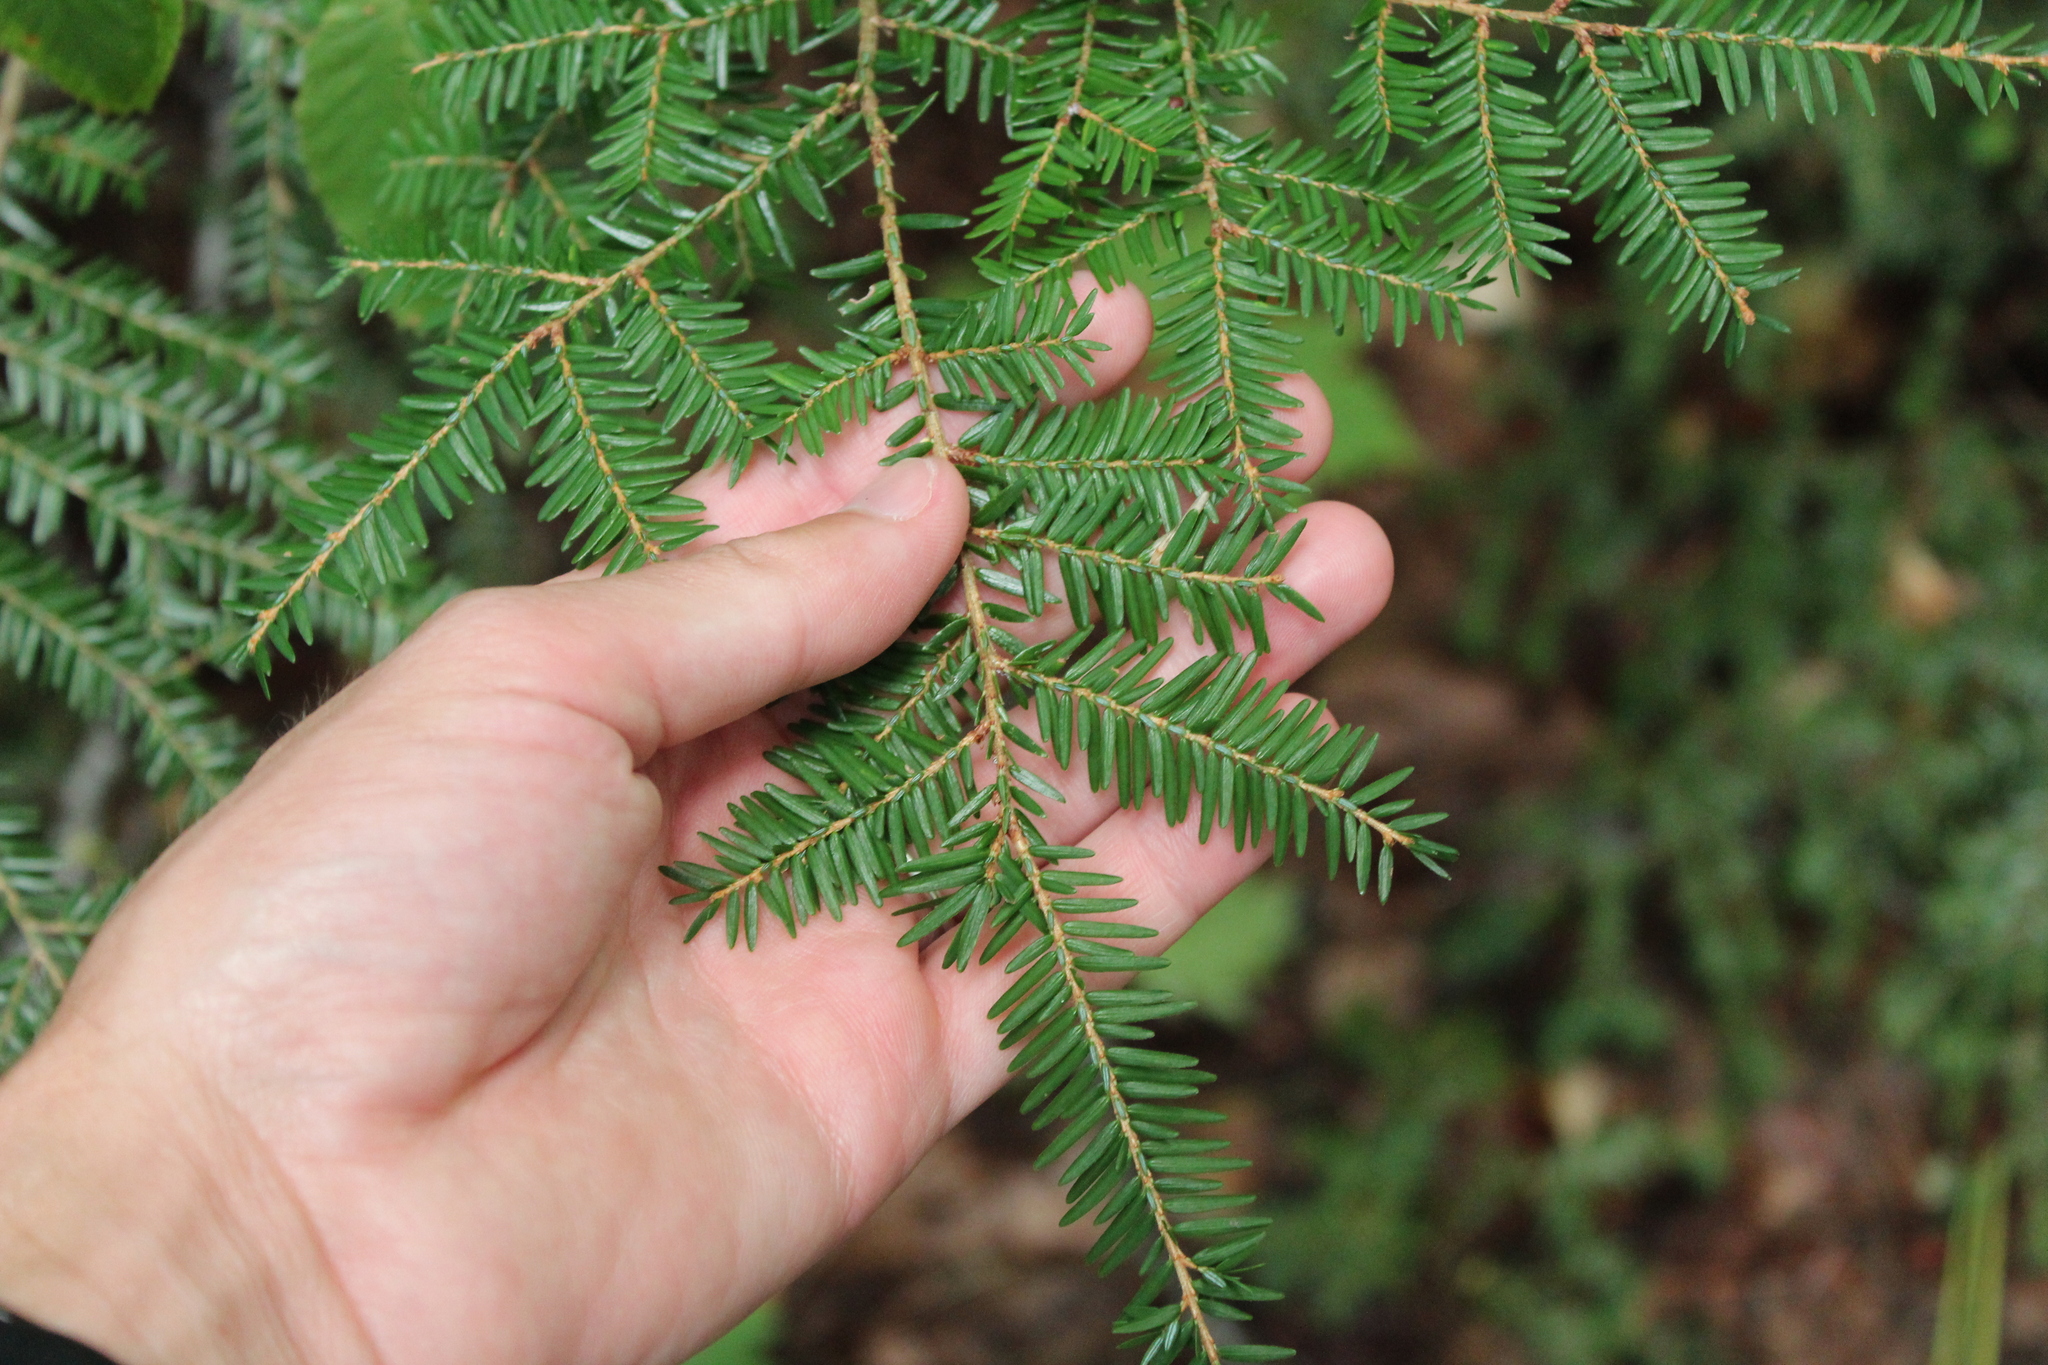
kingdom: Plantae
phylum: Tracheophyta
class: Pinopsida
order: Pinales
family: Pinaceae
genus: Tsuga
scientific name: Tsuga canadensis
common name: Eastern hemlock
